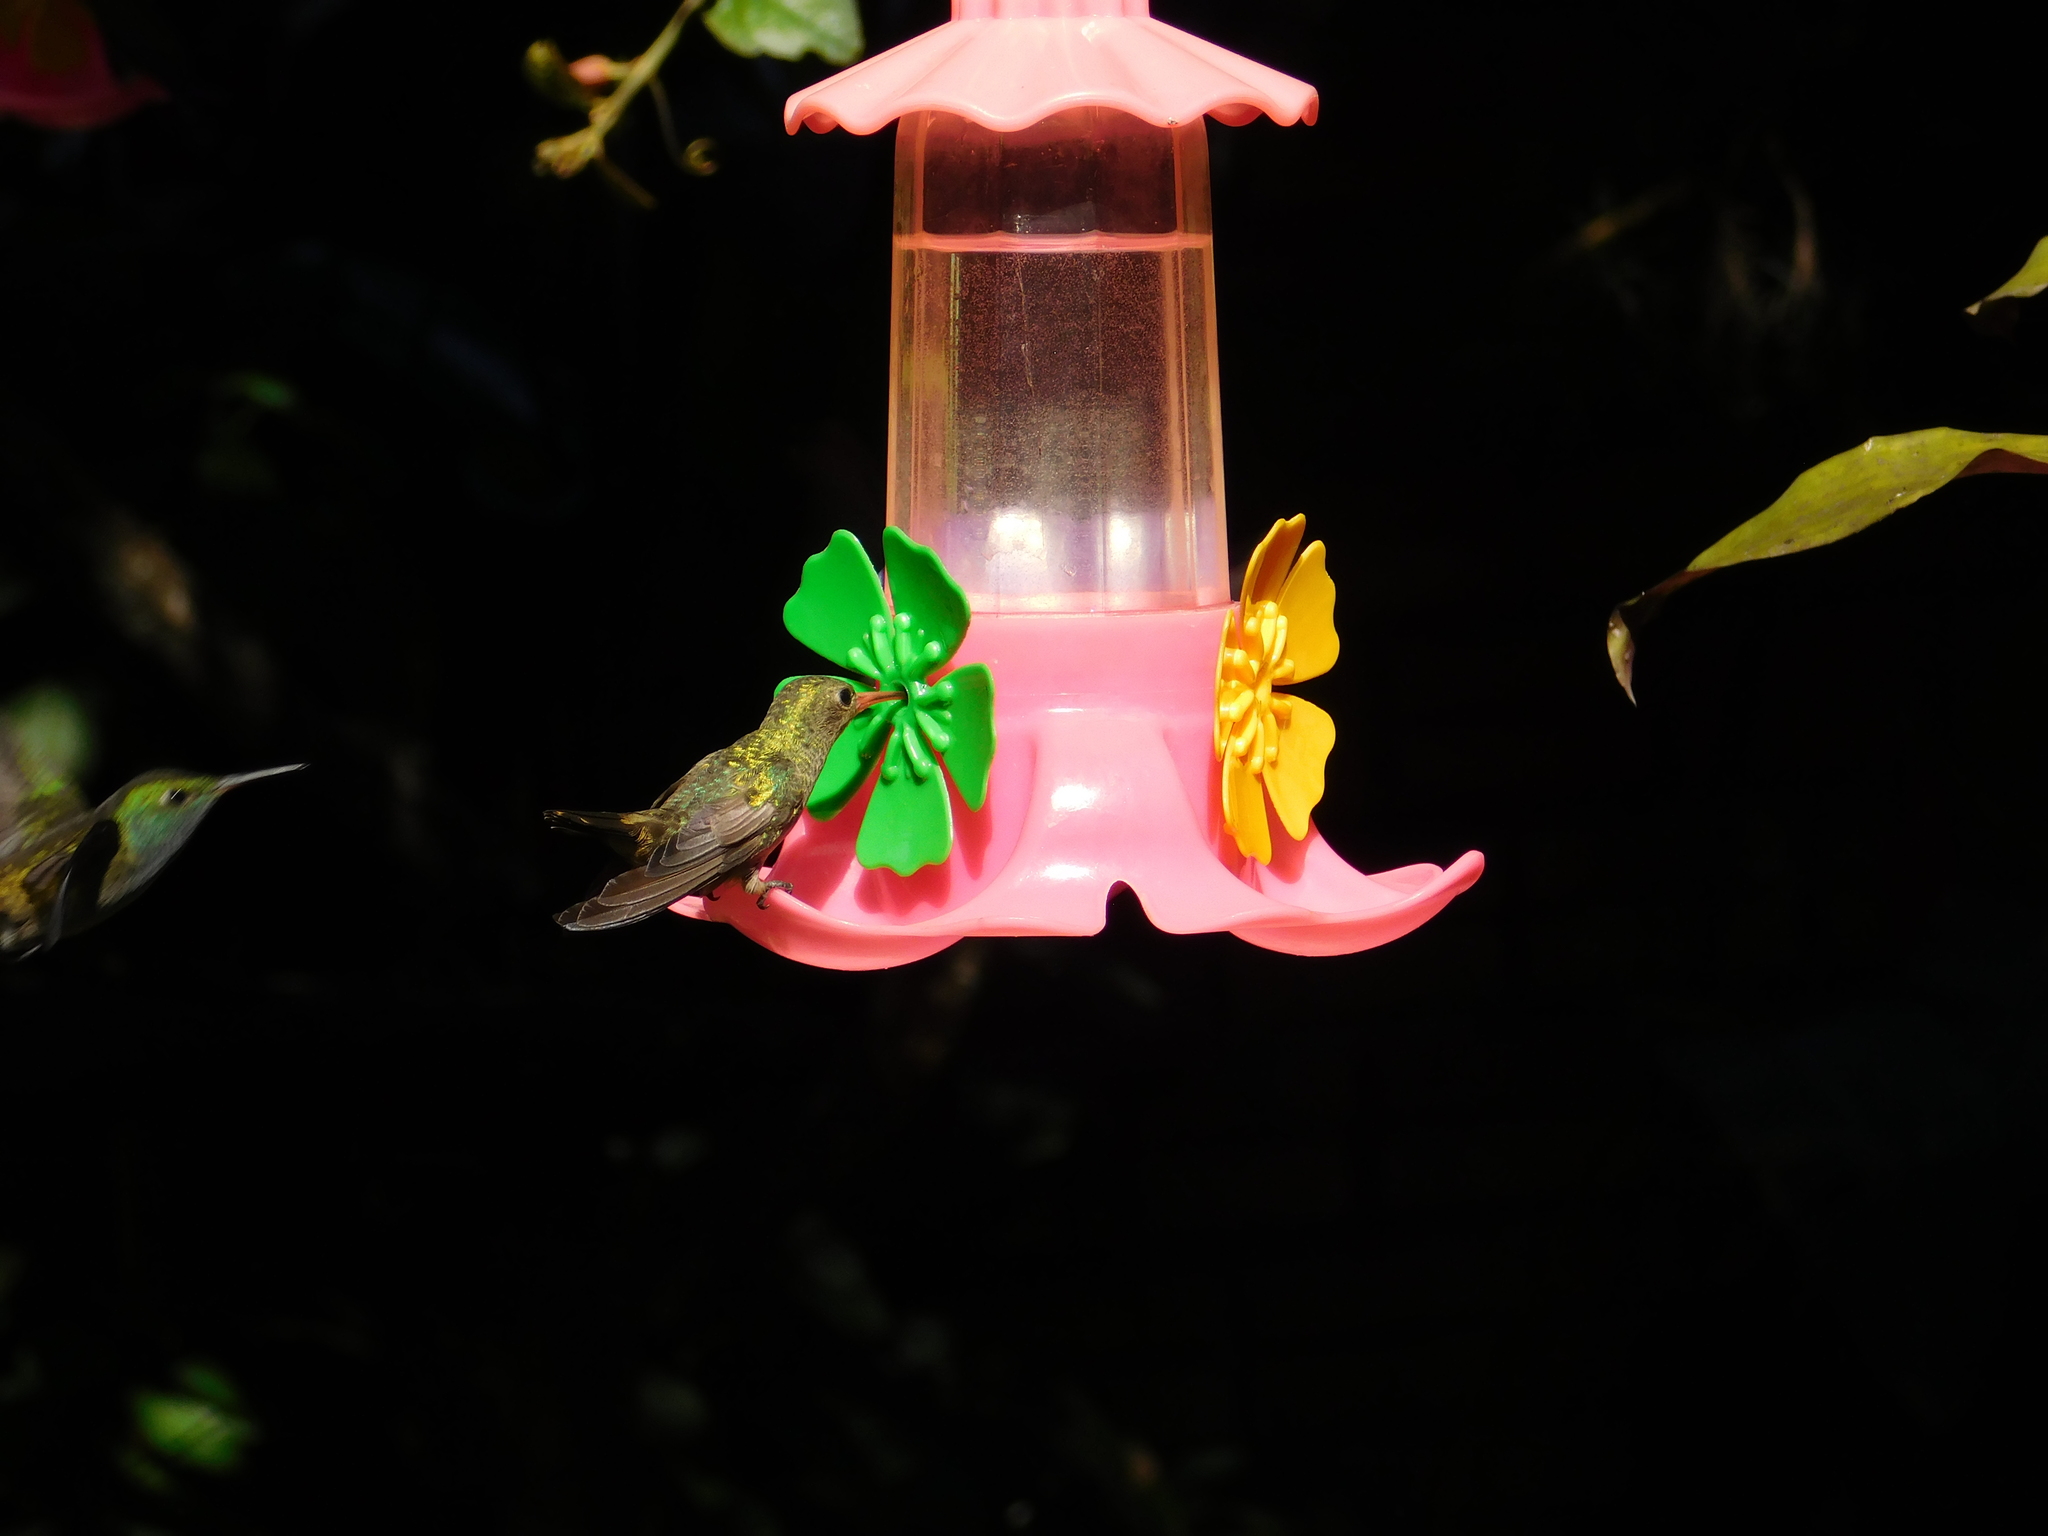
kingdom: Animalia
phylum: Chordata
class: Aves
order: Apodiformes
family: Trochilidae
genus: Hylocharis
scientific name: Hylocharis chrysura
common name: Gilded sapphire
